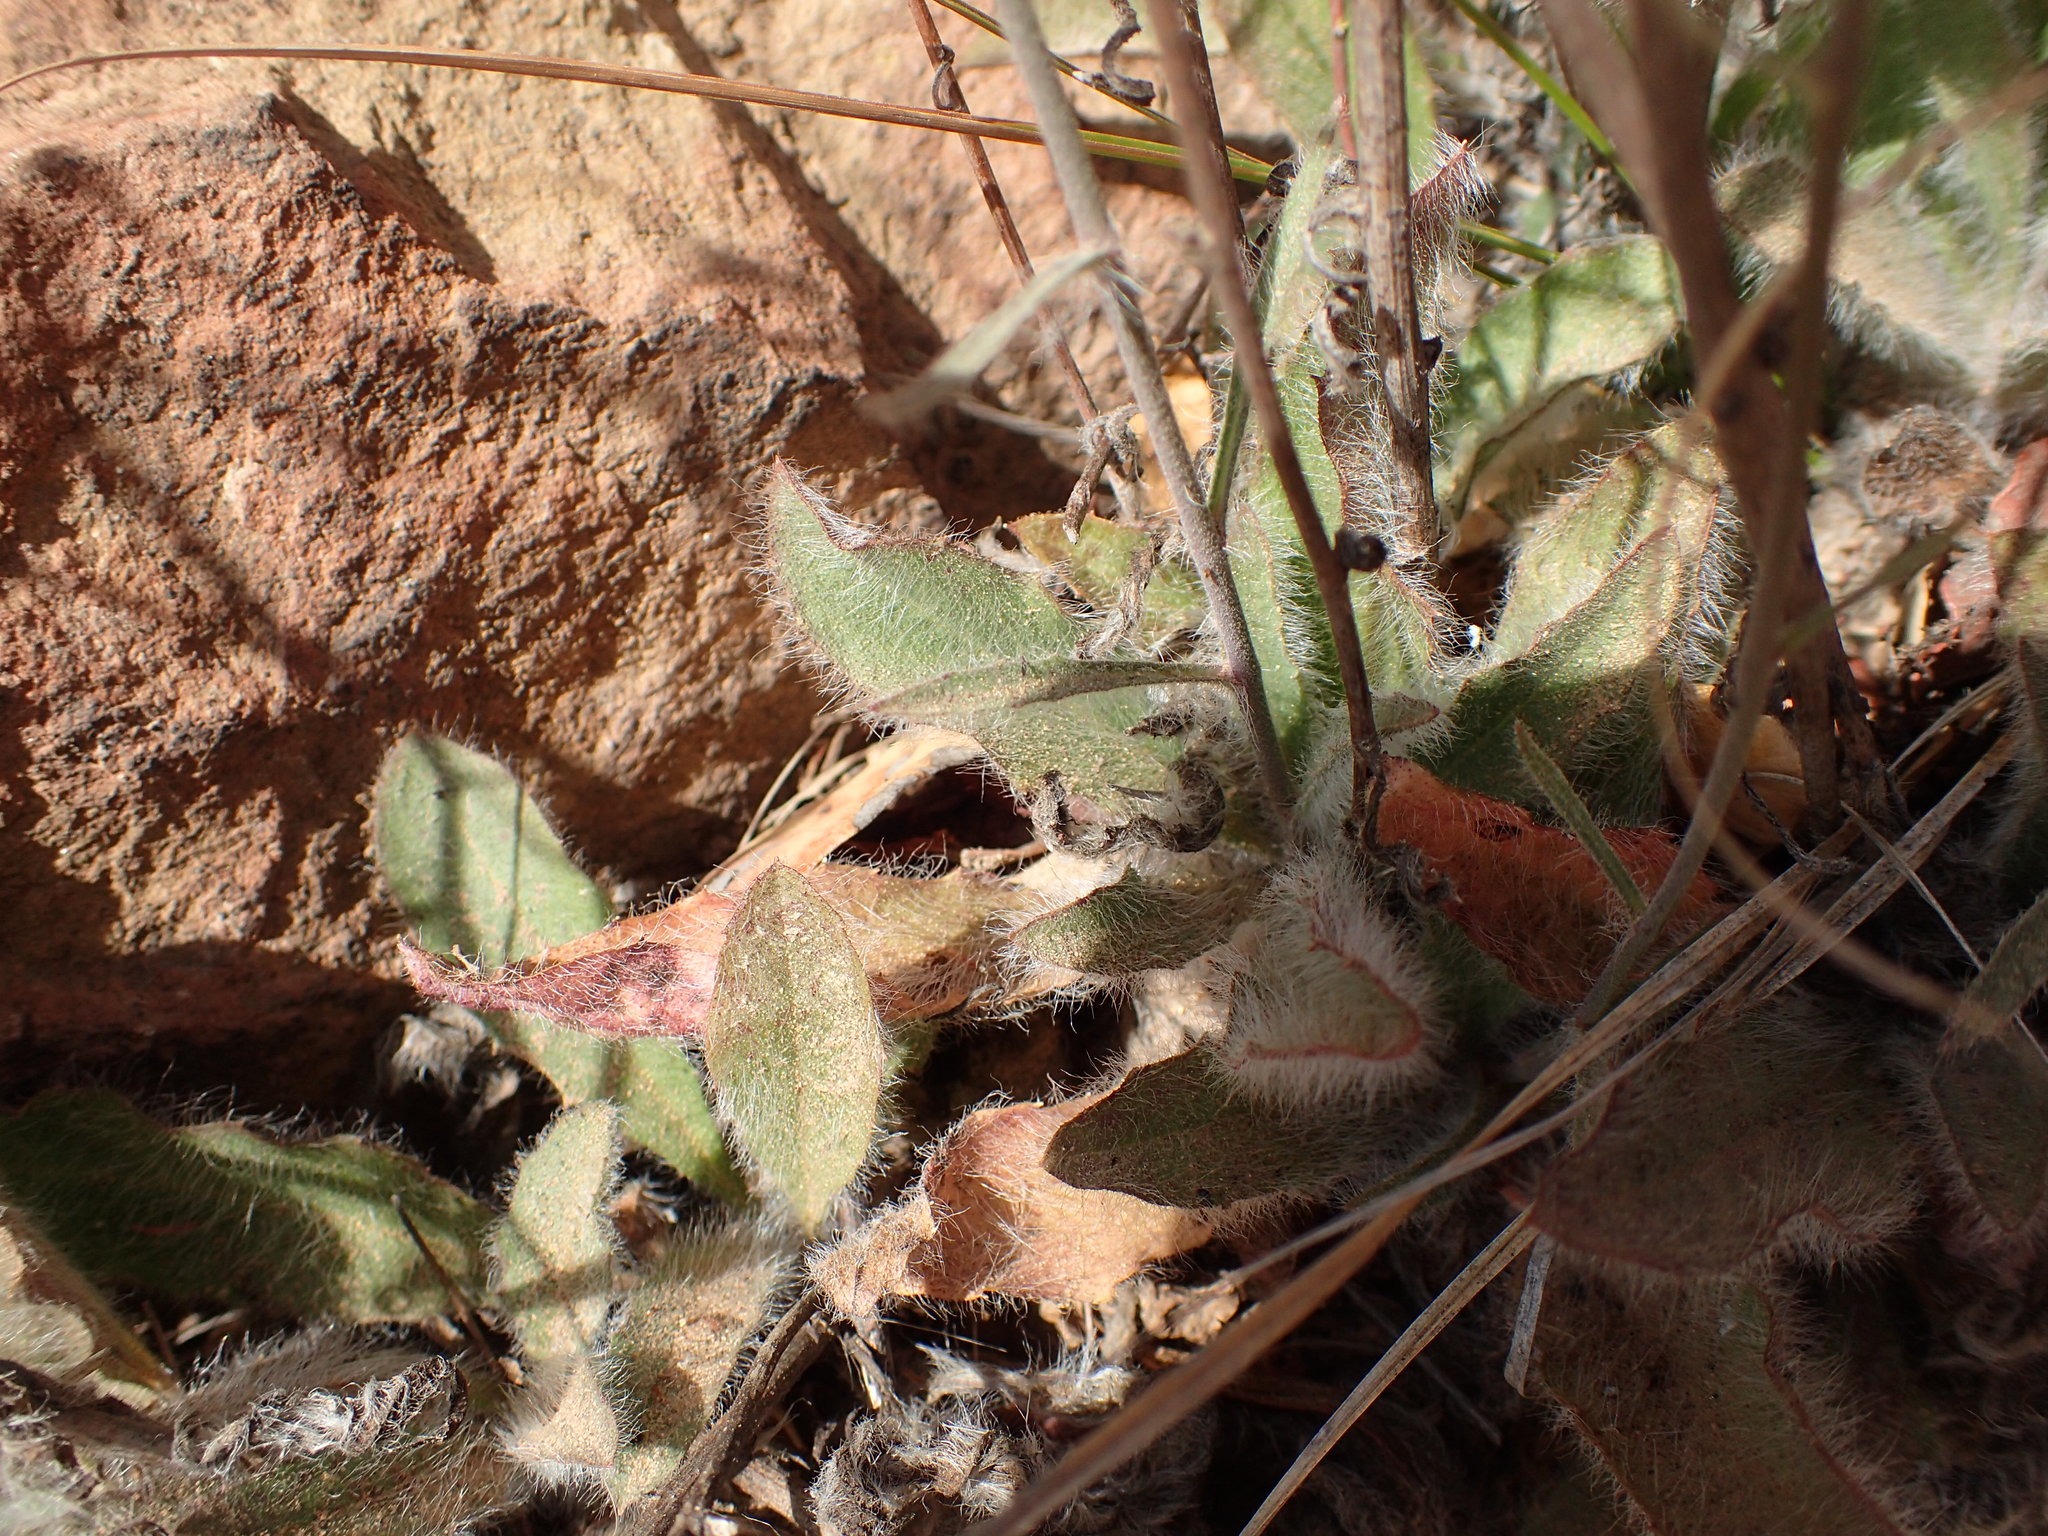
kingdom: Plantae
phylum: Tracheophyta
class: Magnoliopsida
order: Asterales
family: Asteraceae
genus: Hieracium
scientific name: Hieracium argutum
